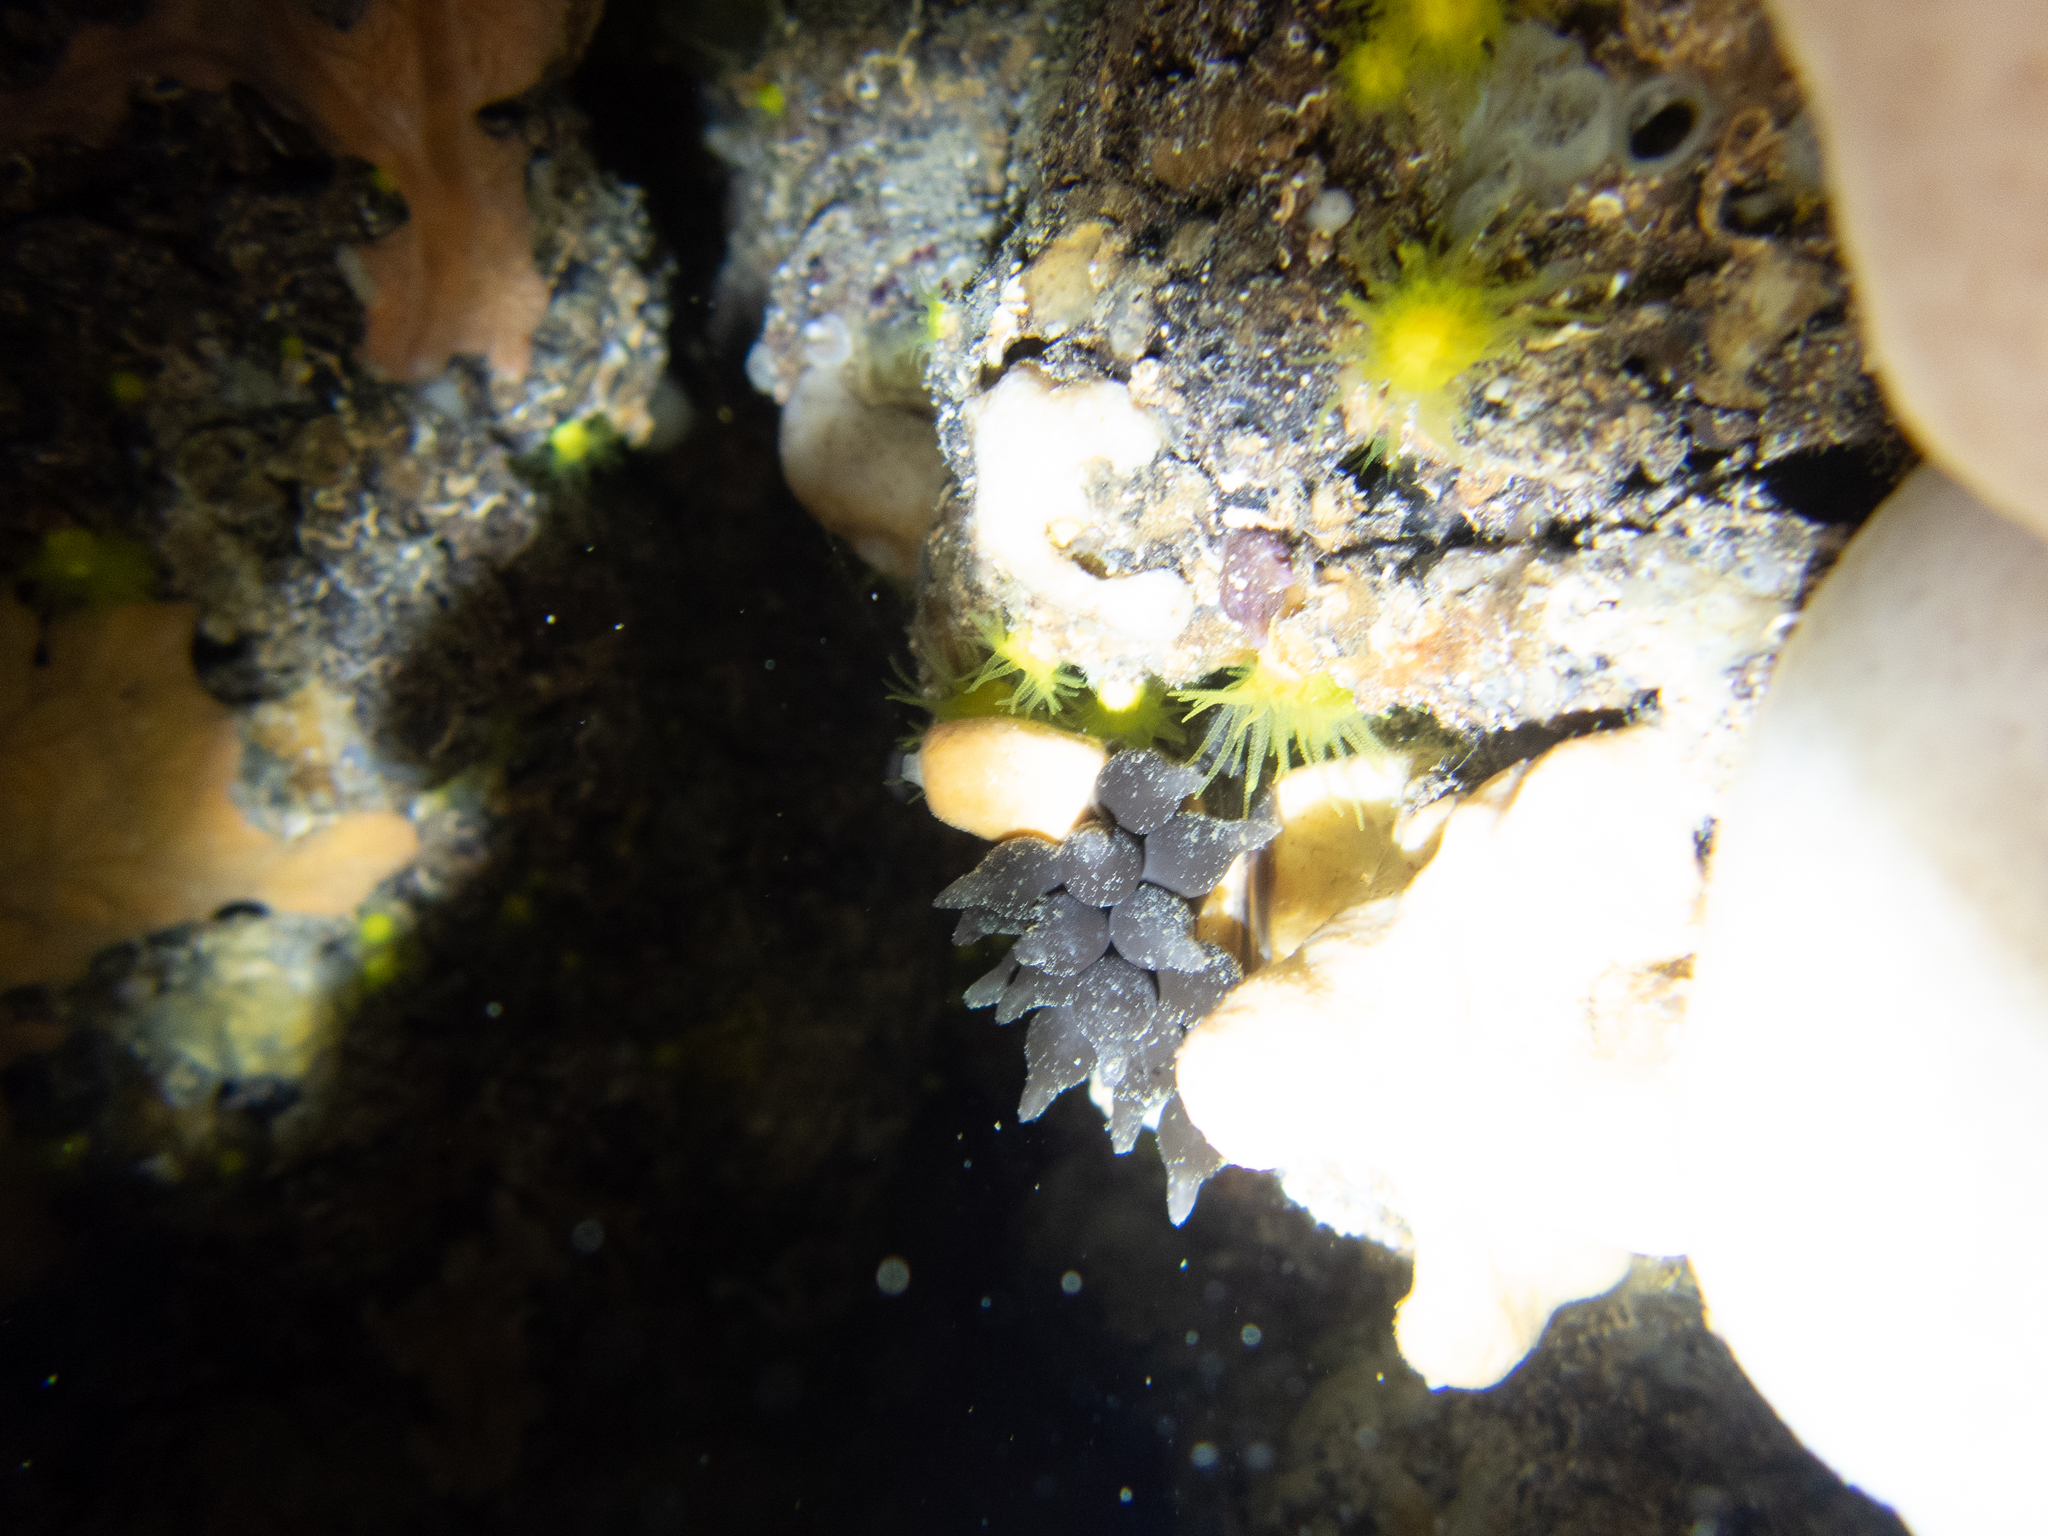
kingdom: Animalia
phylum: Cnidaria
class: Anthozoa
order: Scleractinia
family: Dendrophylliidae
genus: Leptopsammia
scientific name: Leptopsammia pruvoti
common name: Sunset cup coral
